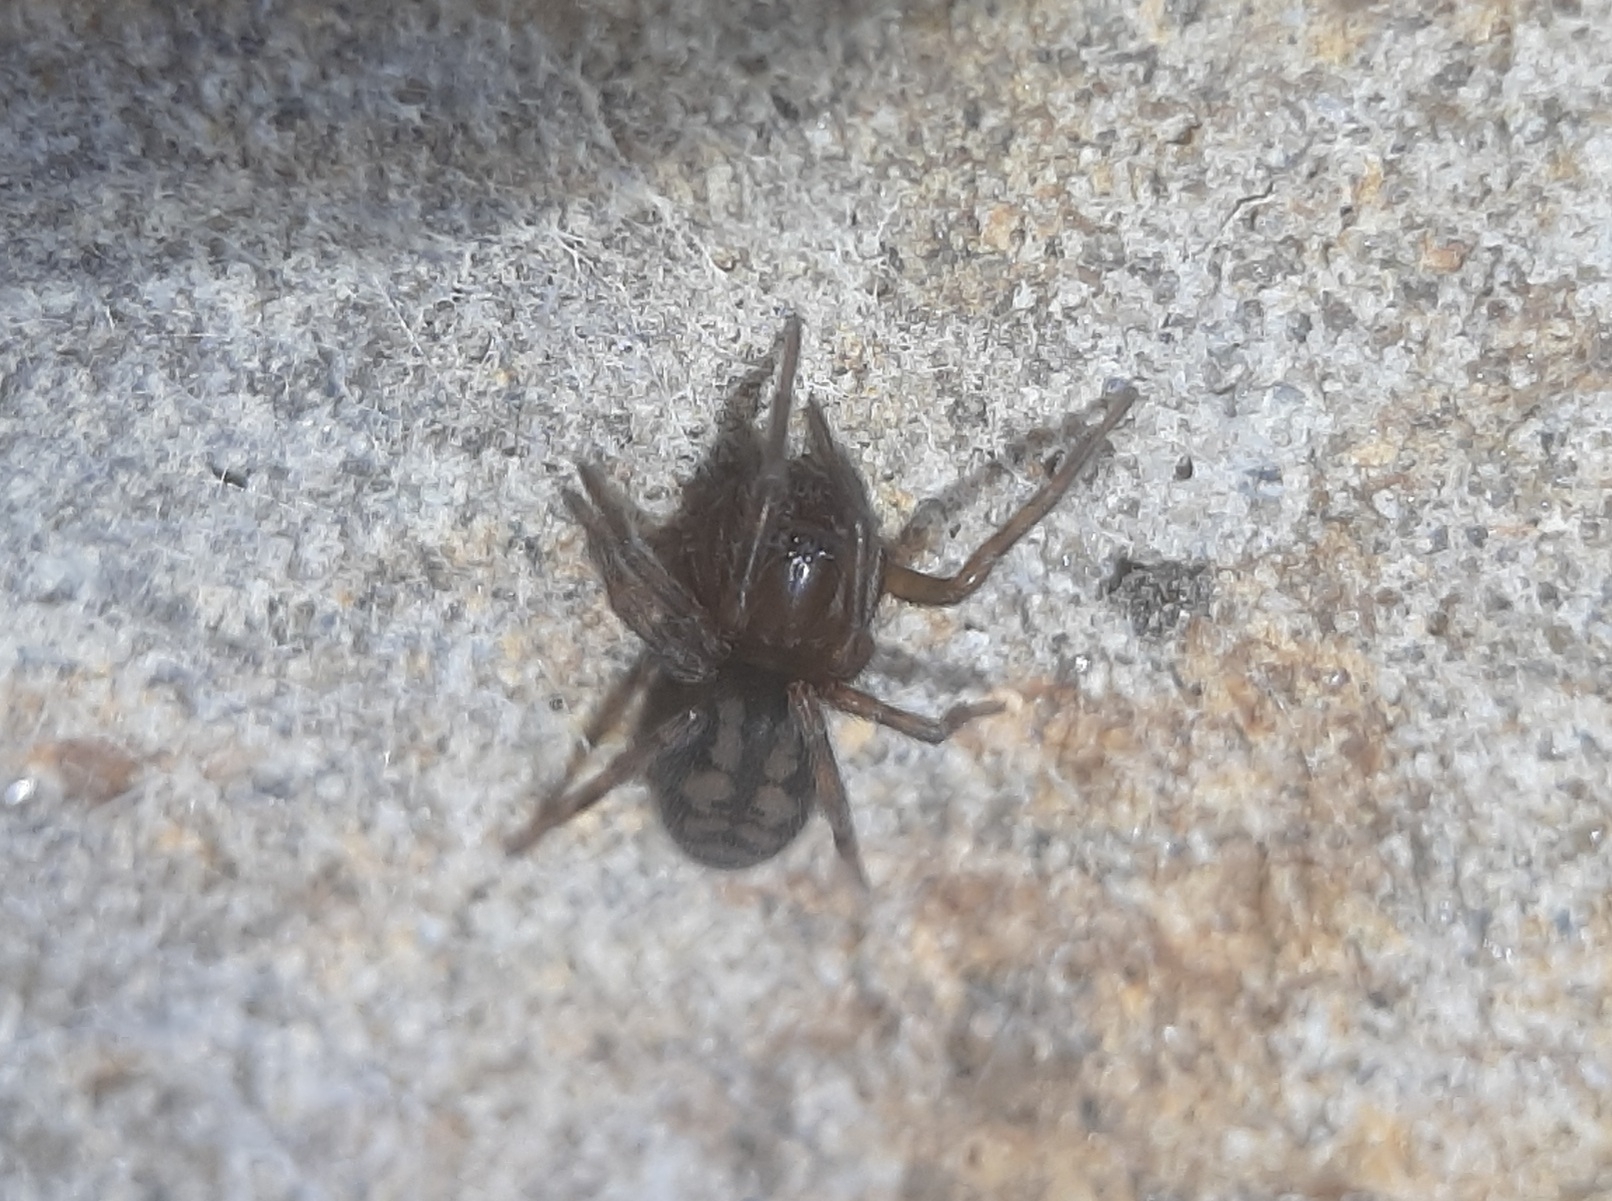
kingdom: Animalia
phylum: Arthropoda
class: Arachnida
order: Araneae
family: Amaurobiidae
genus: Callobius
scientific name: Callobius bennetti
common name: Bennett's laceweaver
